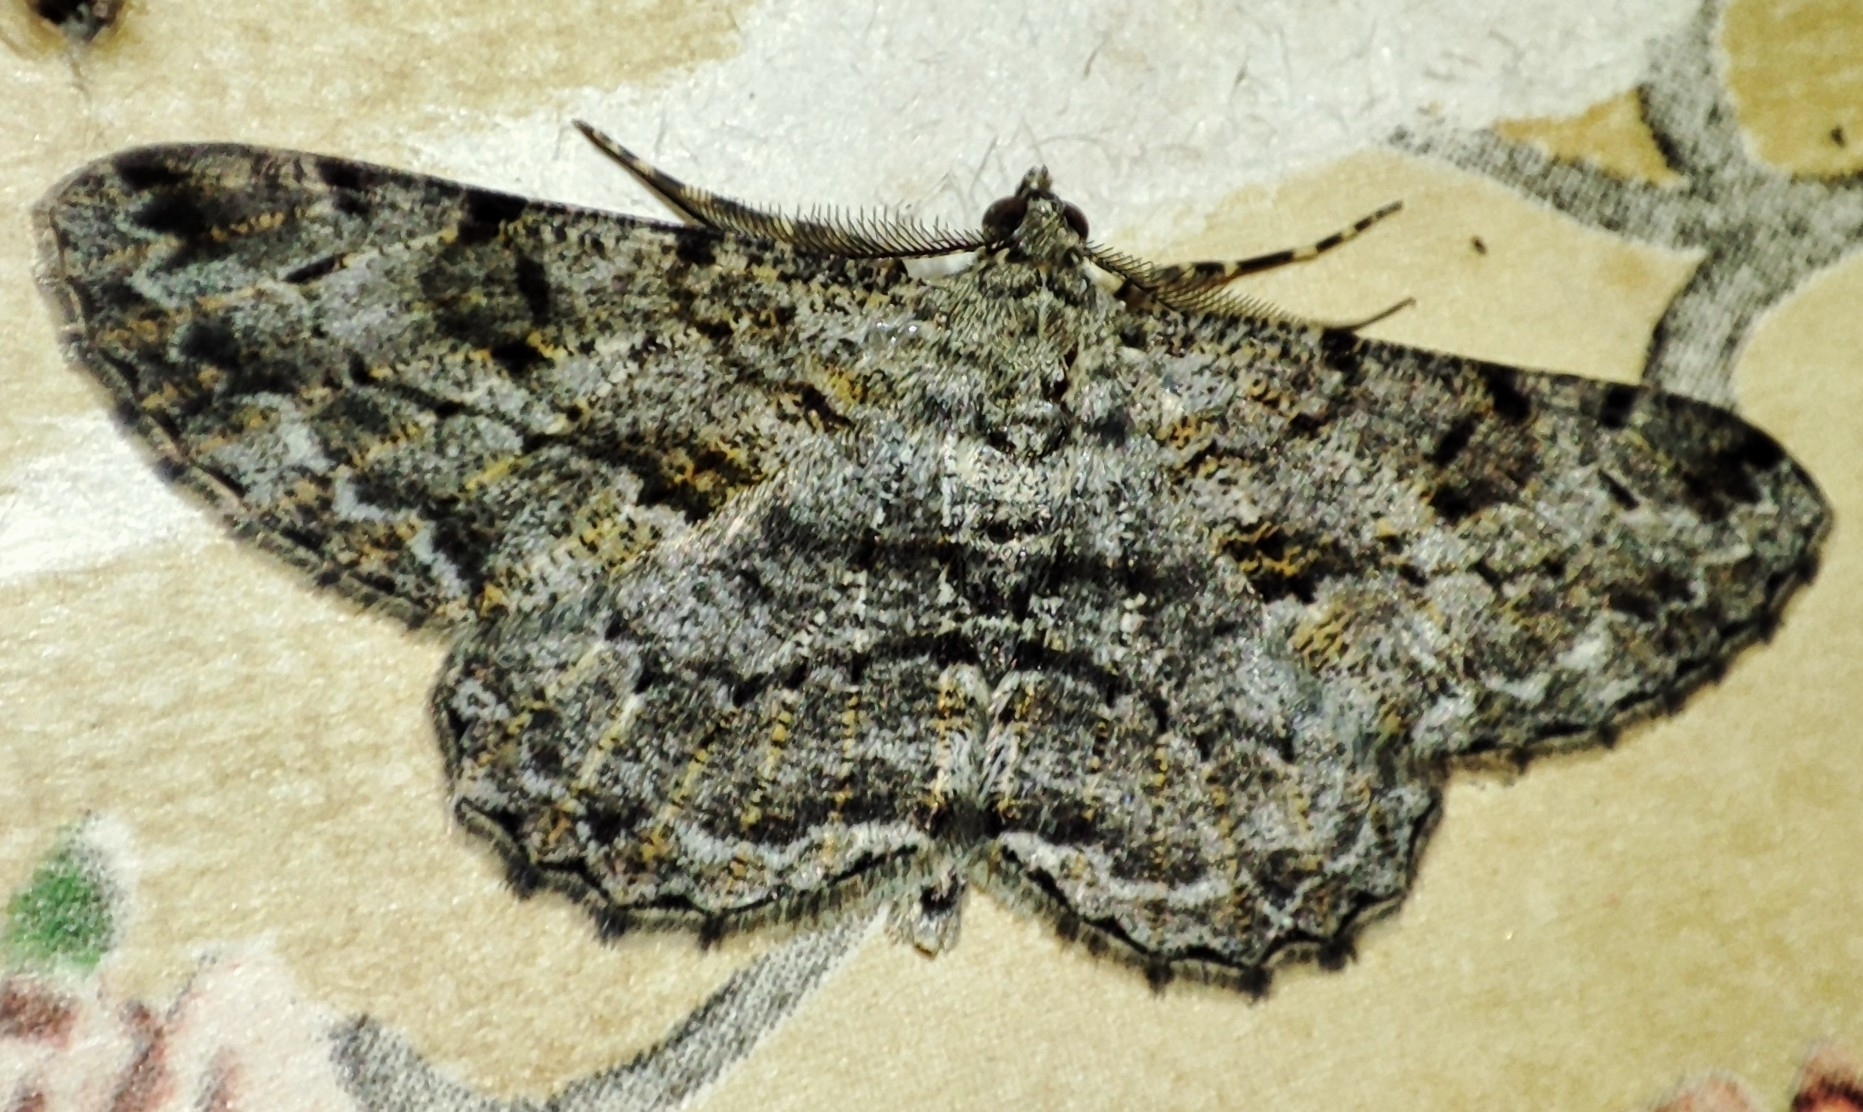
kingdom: Animalia
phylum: Arthropoda
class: Insecta
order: Lepidoptera
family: Geometridae
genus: Peribatodes
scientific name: Peribatodes rhomboidaria
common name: Willow beauty
